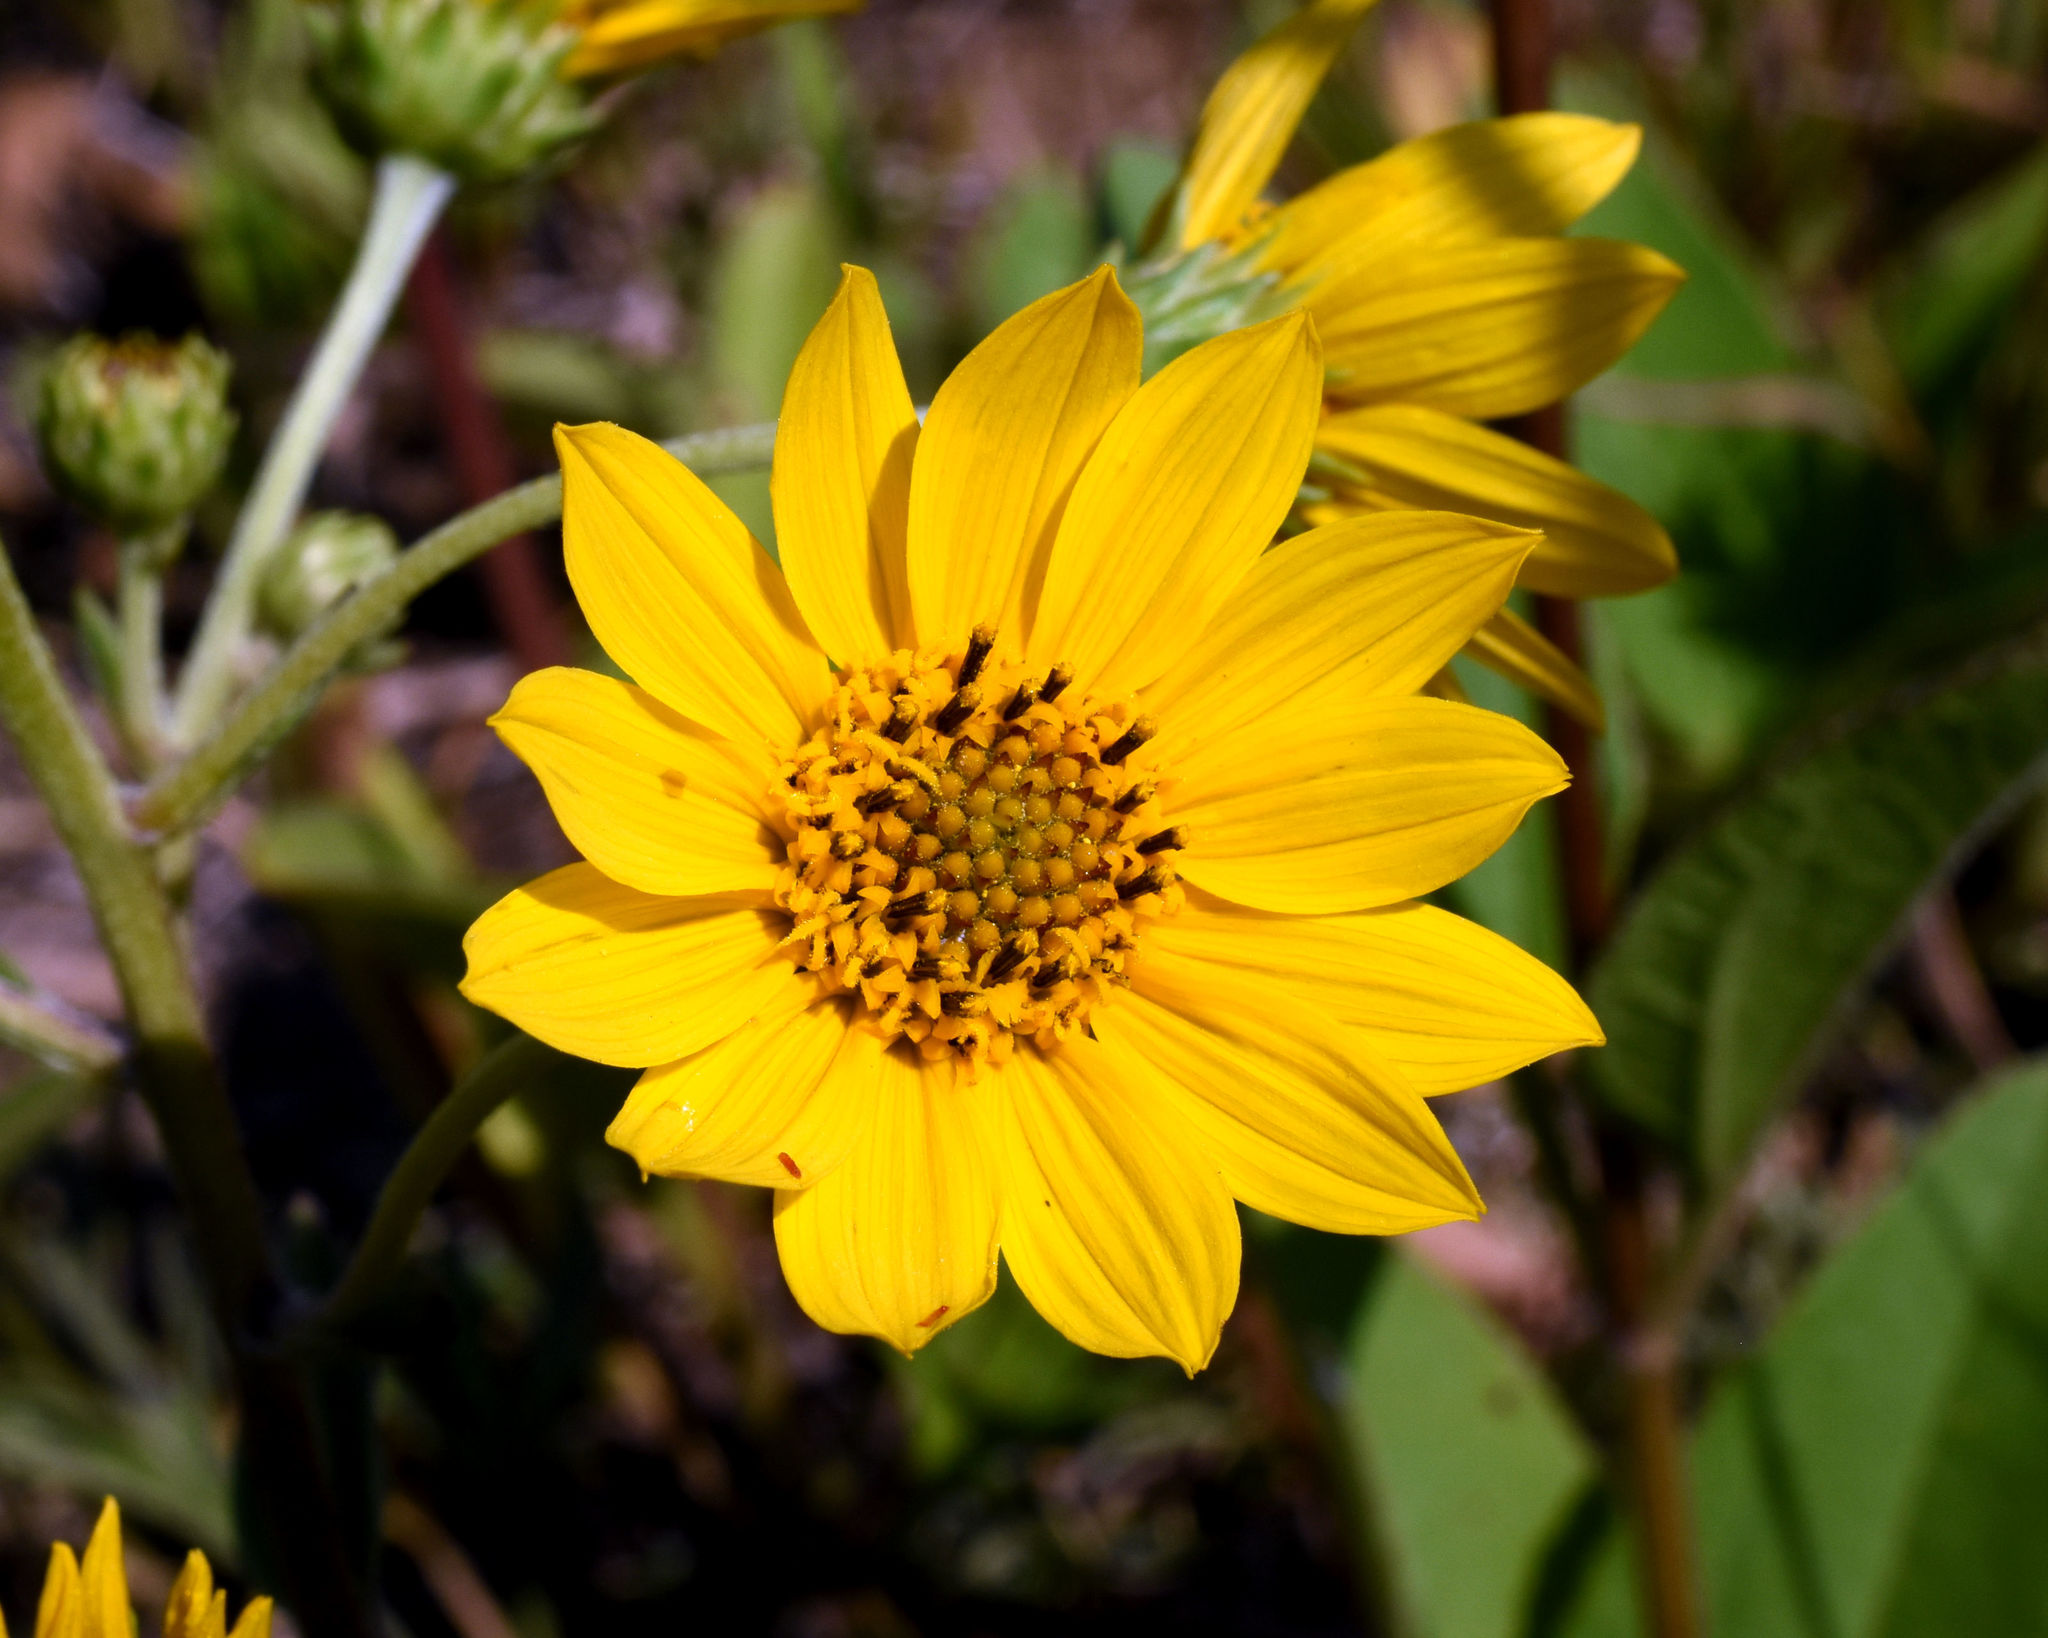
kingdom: Plantae
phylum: Tracheophyta
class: Magnoliopsida
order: Asterales
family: Asteraceae
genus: Helianthus
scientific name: Helianthus occidentalis
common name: Western sunflower
